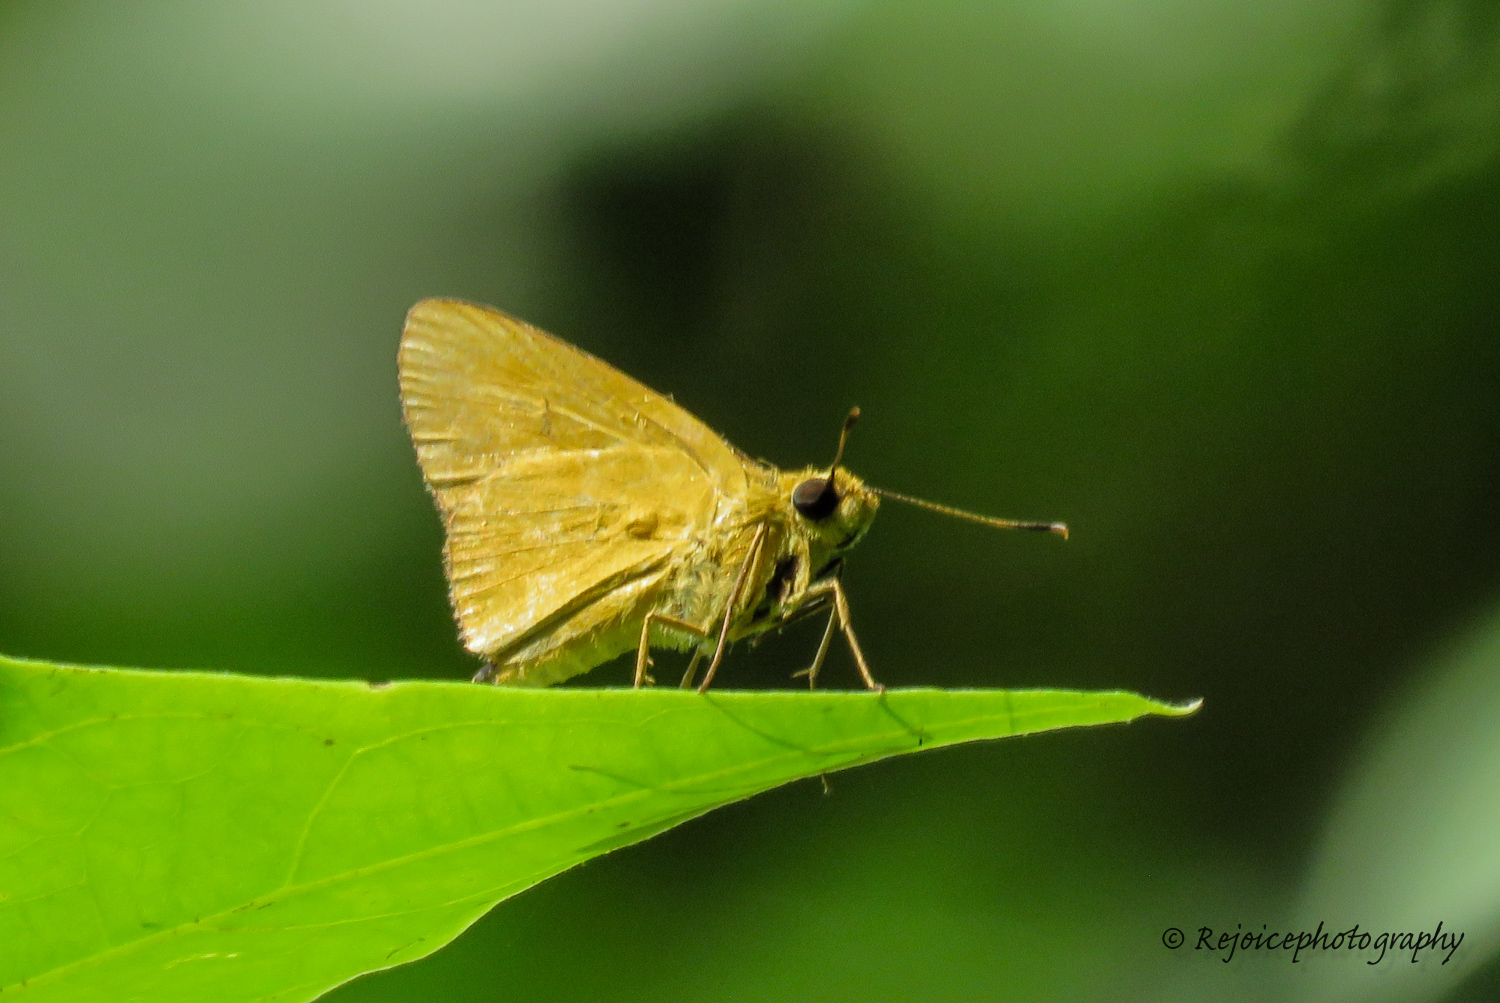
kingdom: Animalia
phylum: Arthropoda
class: Insecta
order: Lepidoptera
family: Hesperiidae
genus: Cupitha
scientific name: Cupitha purreea
